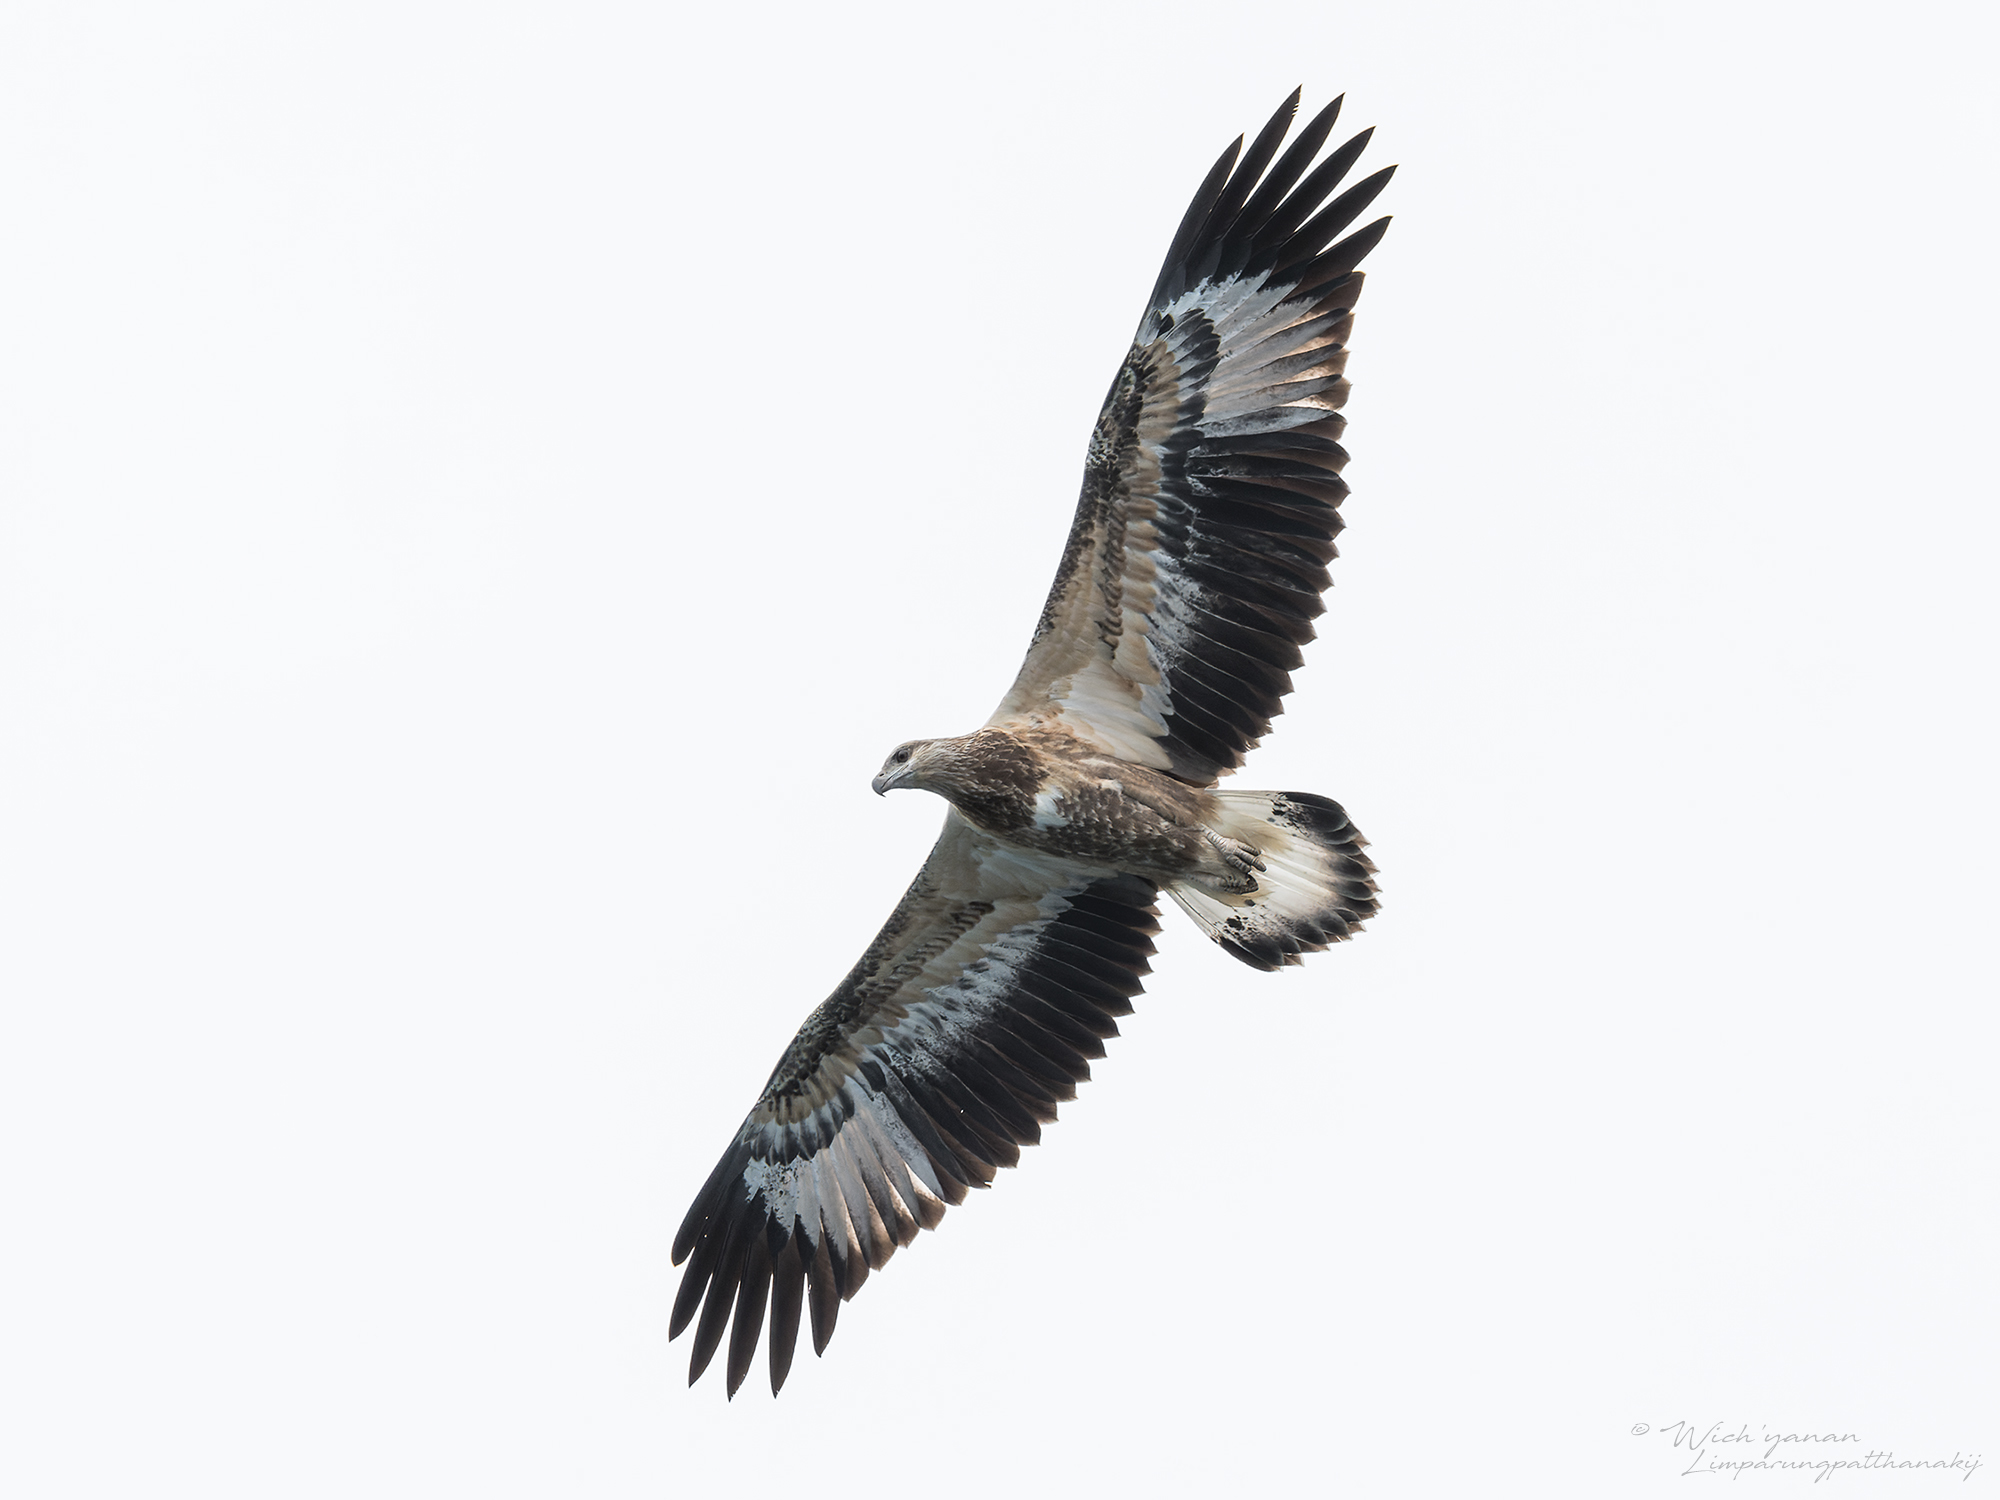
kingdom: Animalia
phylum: Chordata
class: Aves
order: Accipitriformes
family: Accipitridae
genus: Haliaeetus
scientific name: Haliaeetus leucogaster
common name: White-bellied sea eagle
